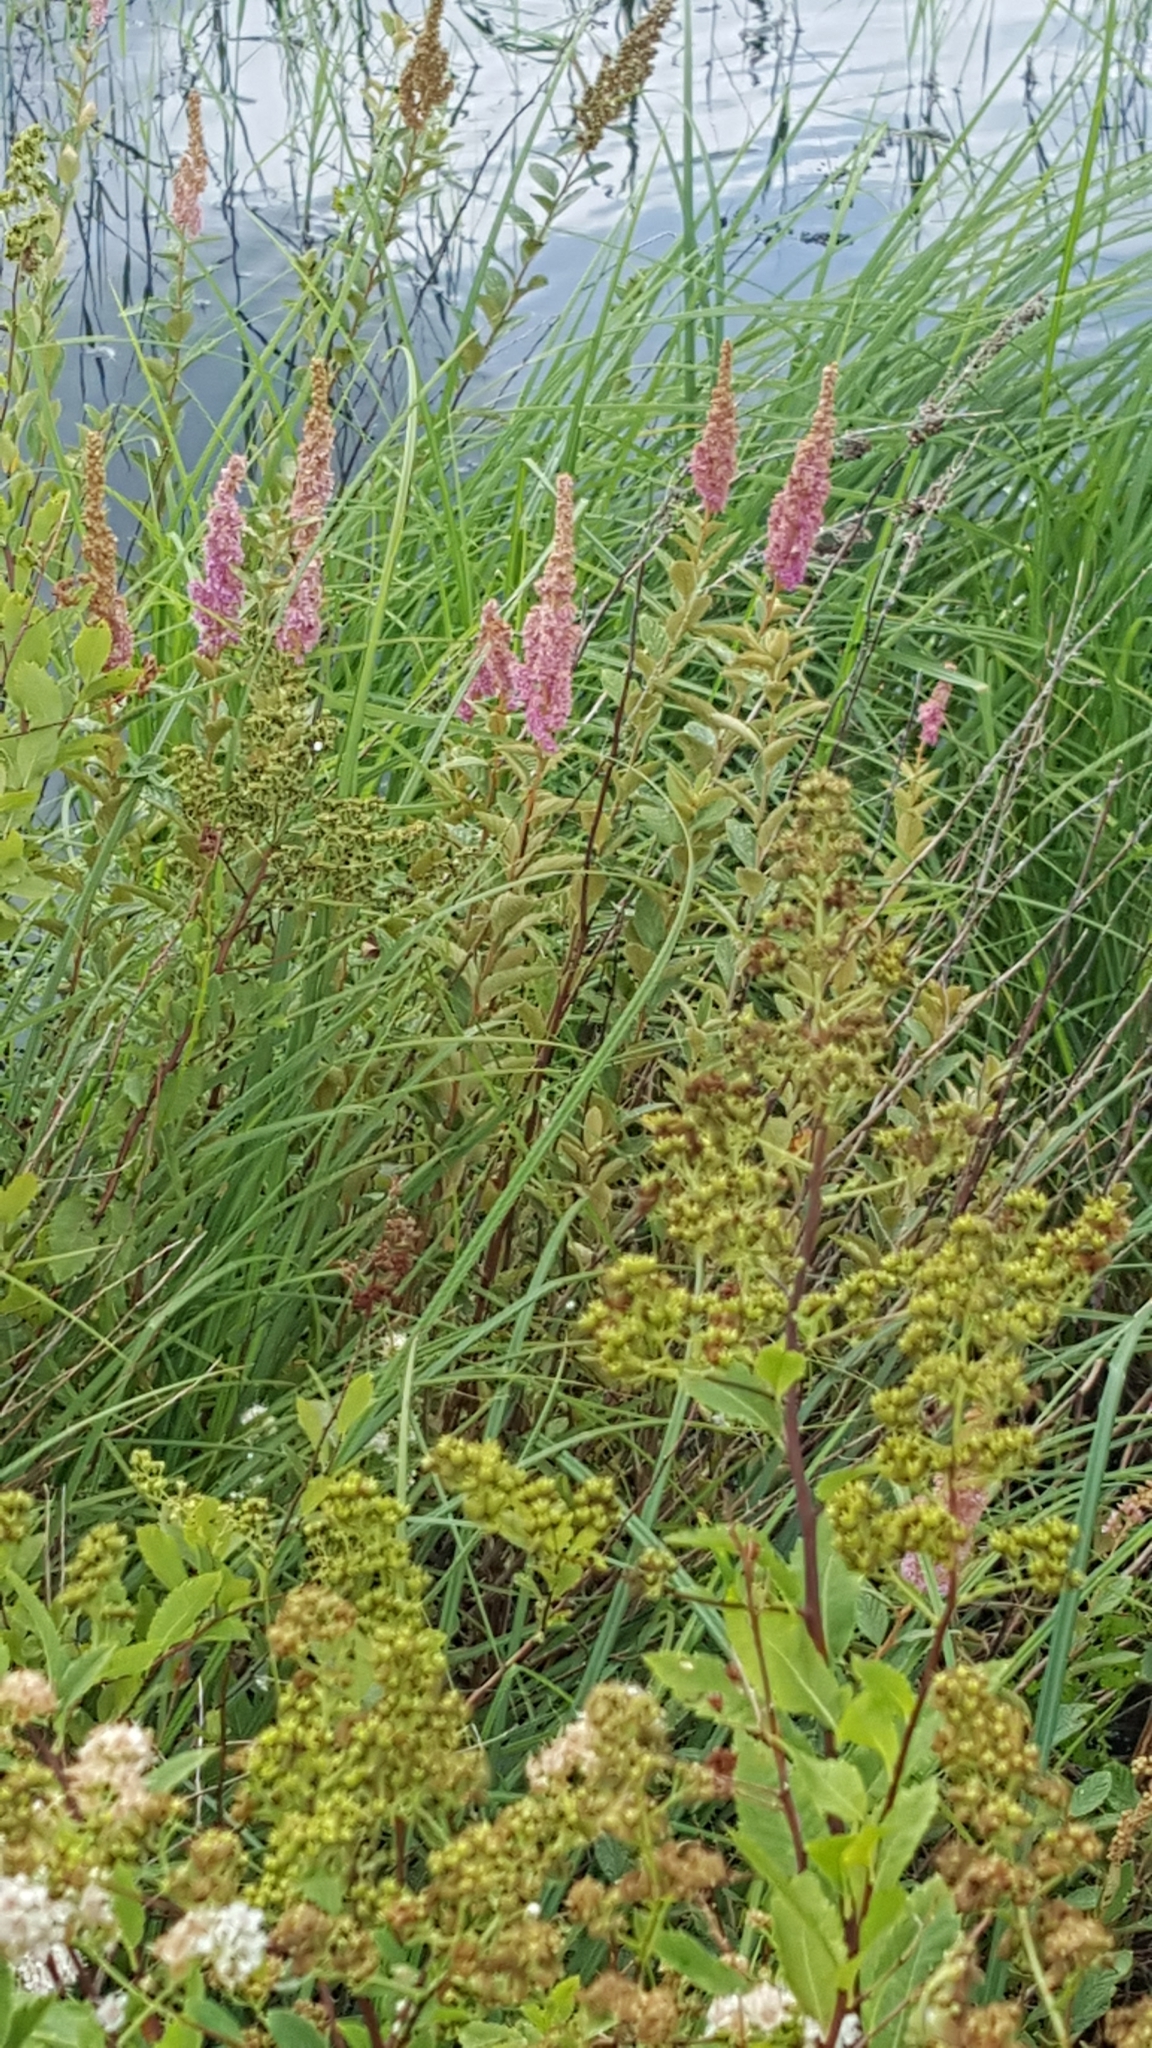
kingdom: Plantae
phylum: Tracheophyta
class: Magnoliopsida
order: Rosales
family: Rosaceae
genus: Spiraea
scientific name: Spiraea tomentosa
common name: Hardhack
